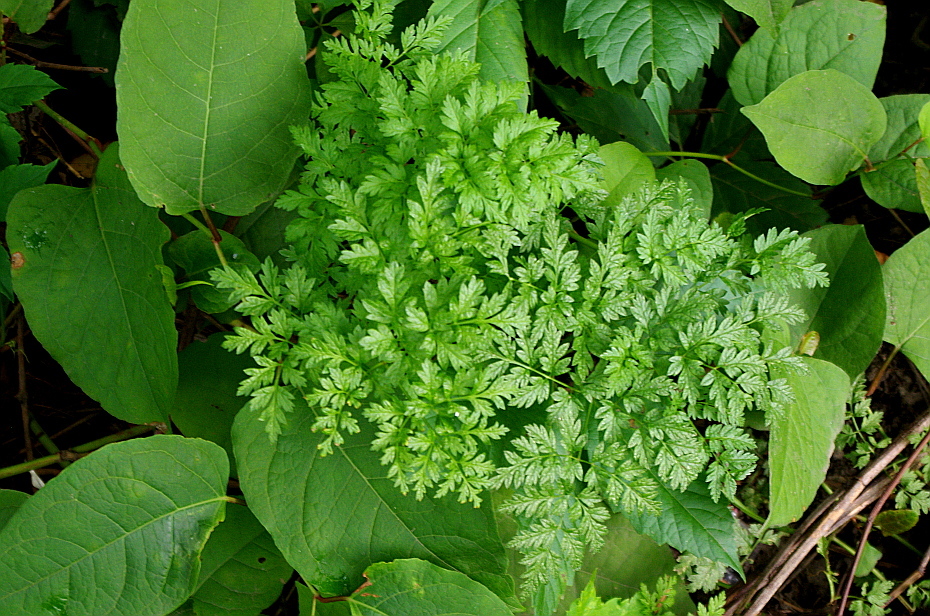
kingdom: Plantae
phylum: Tracheophyta
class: Magnoliopsida
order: Apiales
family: Apiaceae
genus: Anthriscus
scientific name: Anthriscus sylvestris
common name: Cow parsley
